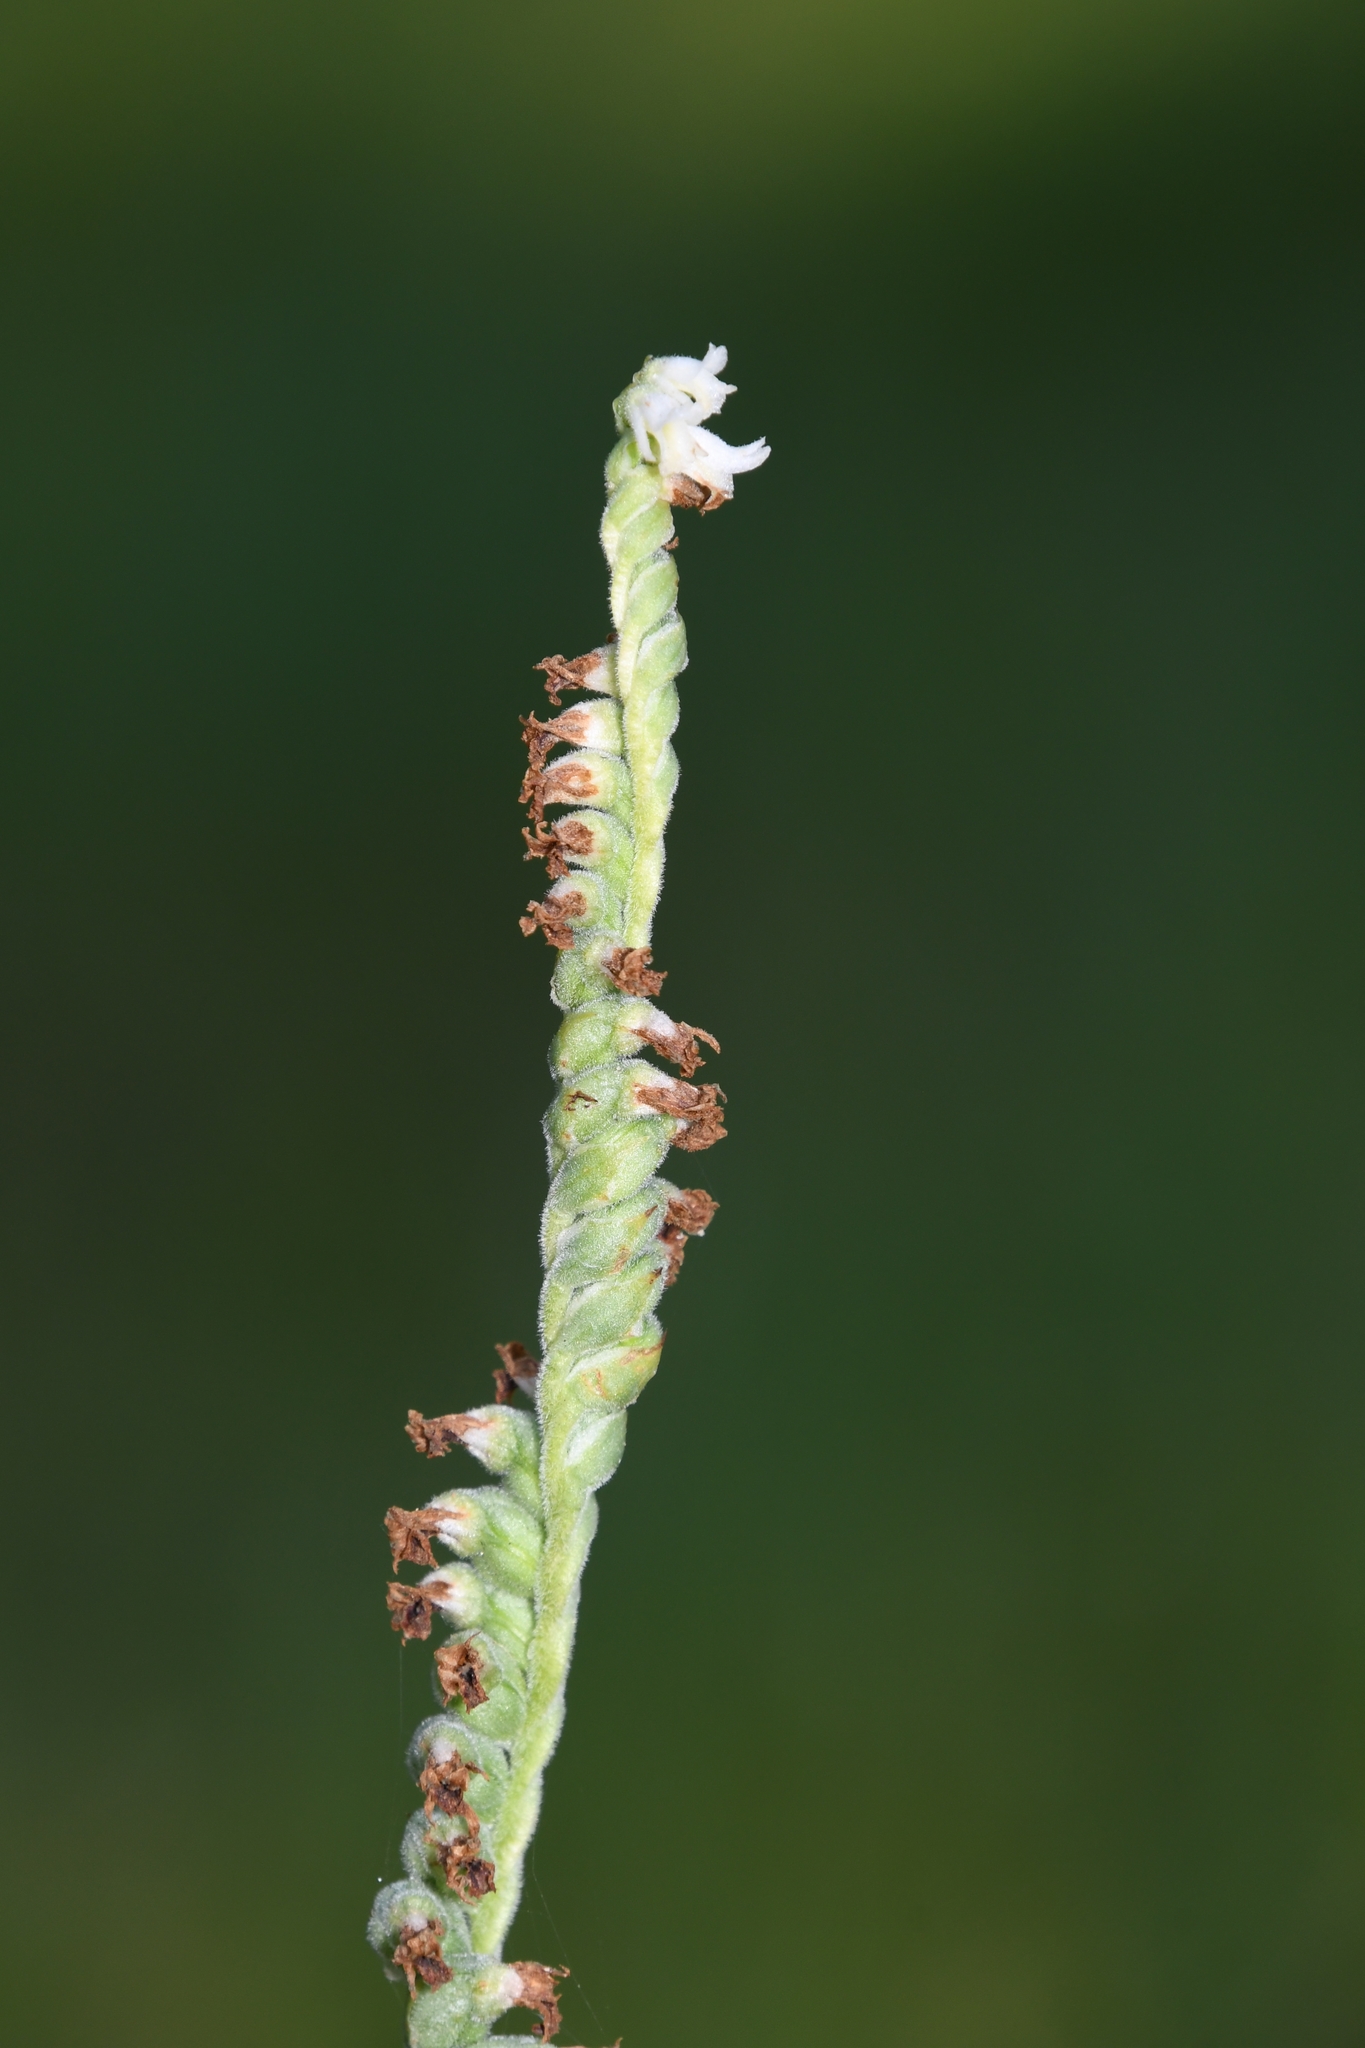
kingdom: Plantae
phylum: Tracheophyta
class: Liliopsida
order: Asparagales
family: Orchidaceae
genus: Spiranthes
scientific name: Spiranthes vernalis
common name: Spring ladies'-tresses
